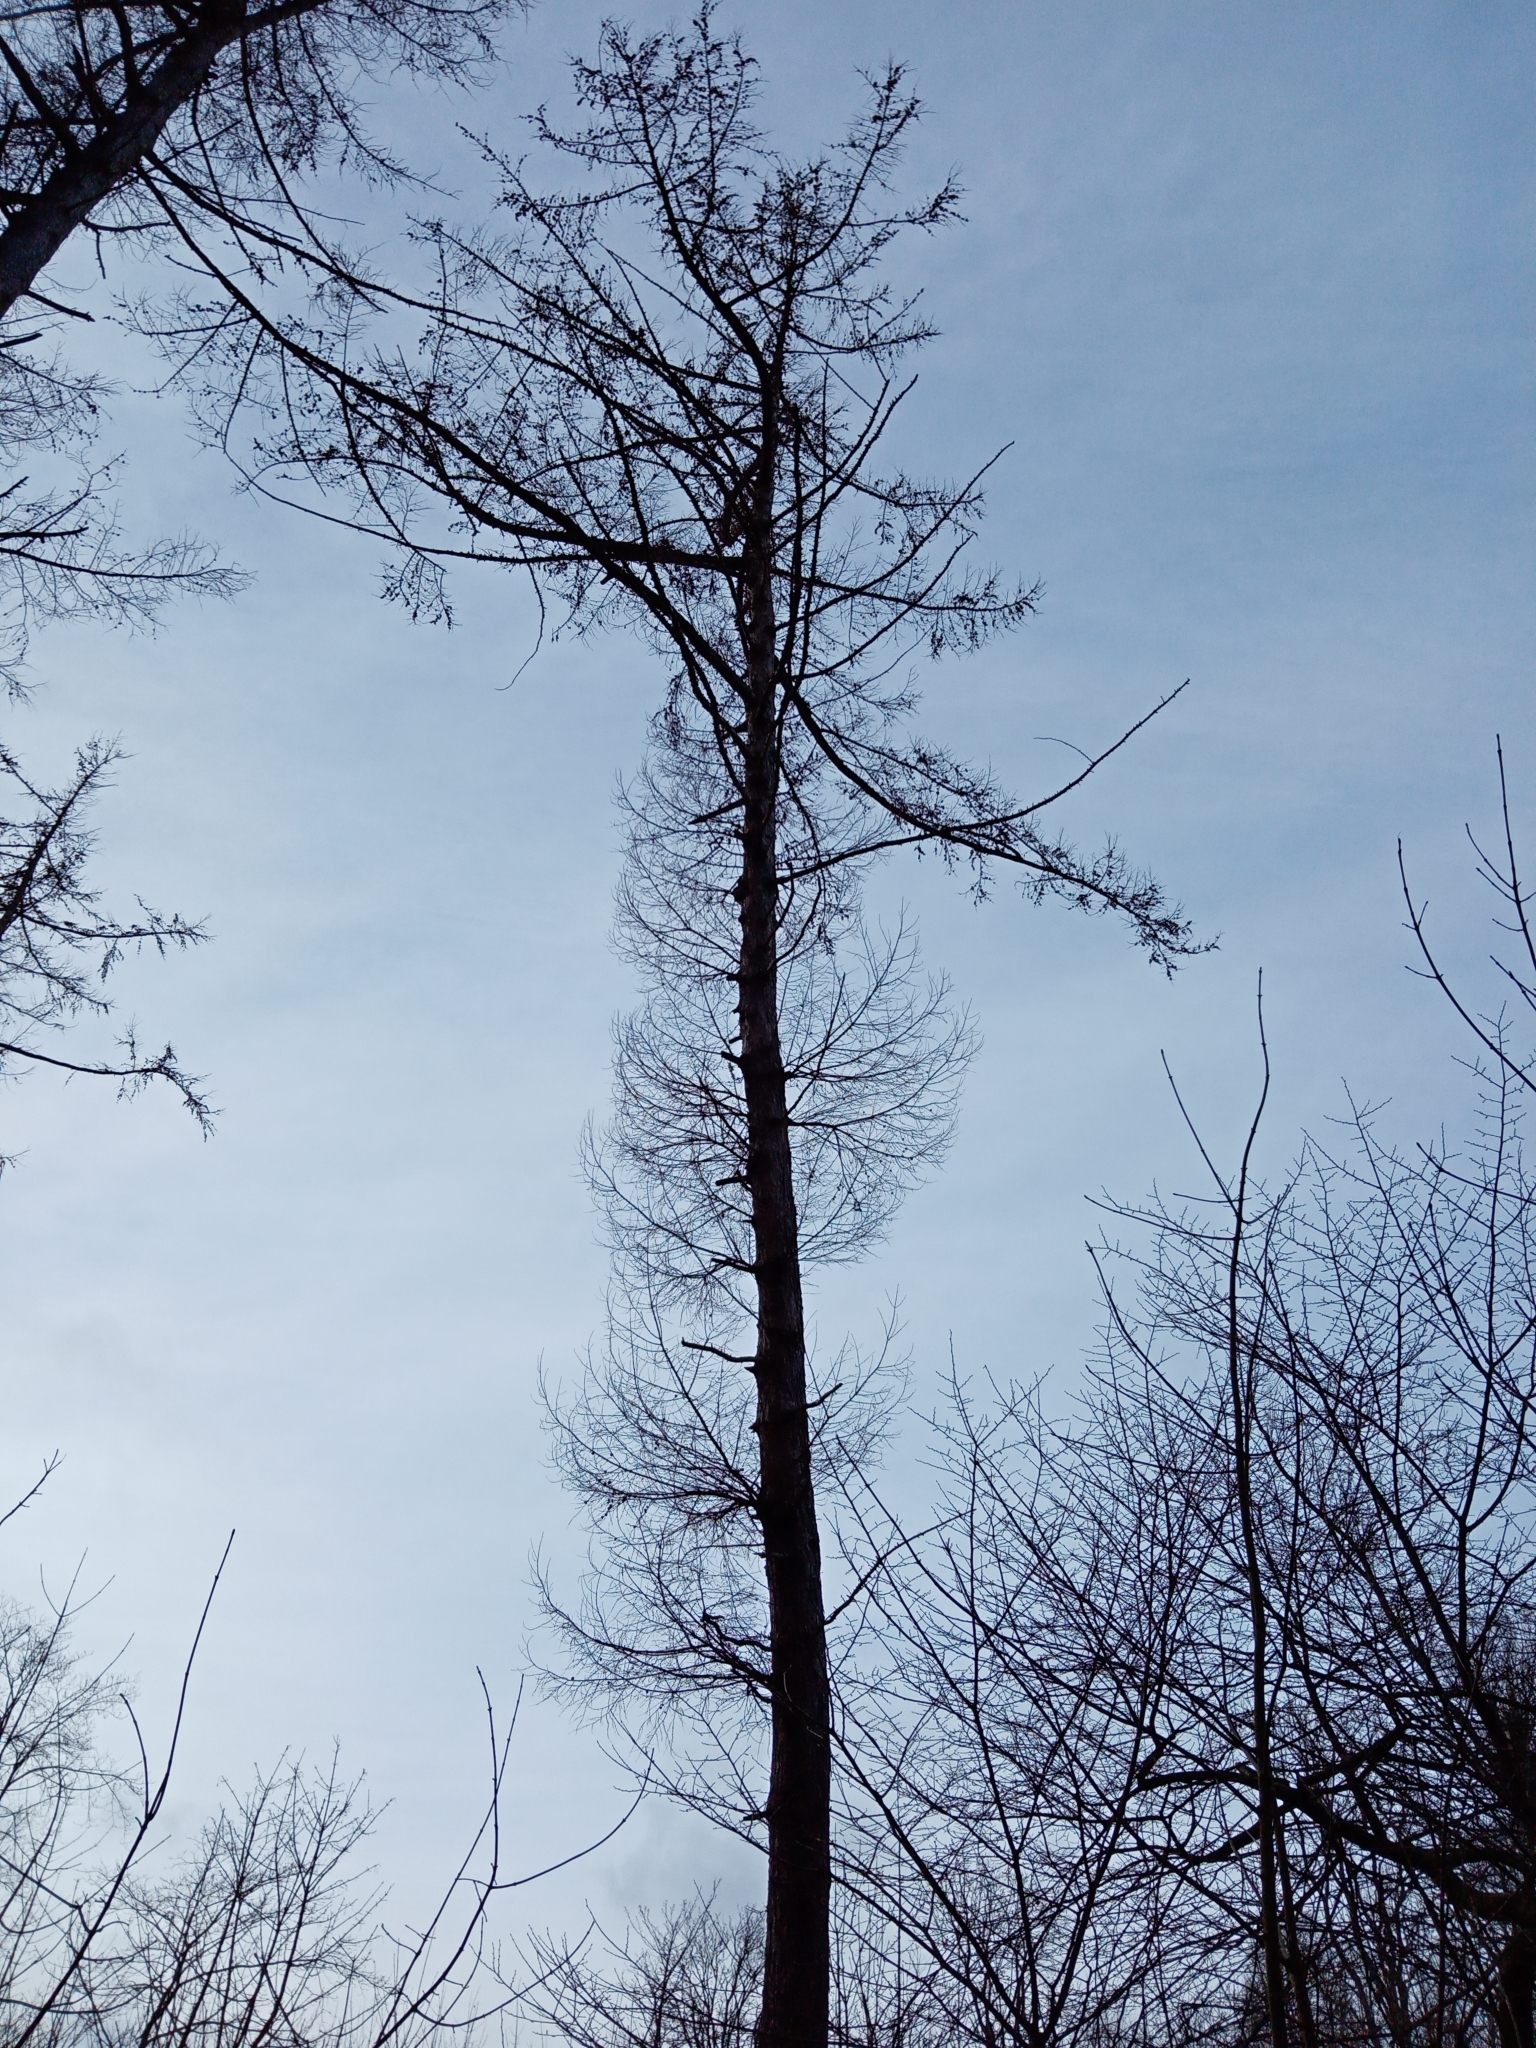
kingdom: Plantae
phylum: Tracheophyta
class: Pinopsida
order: Pinales
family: Pinaceae
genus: Larix
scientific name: Larix decidua
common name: European larch
